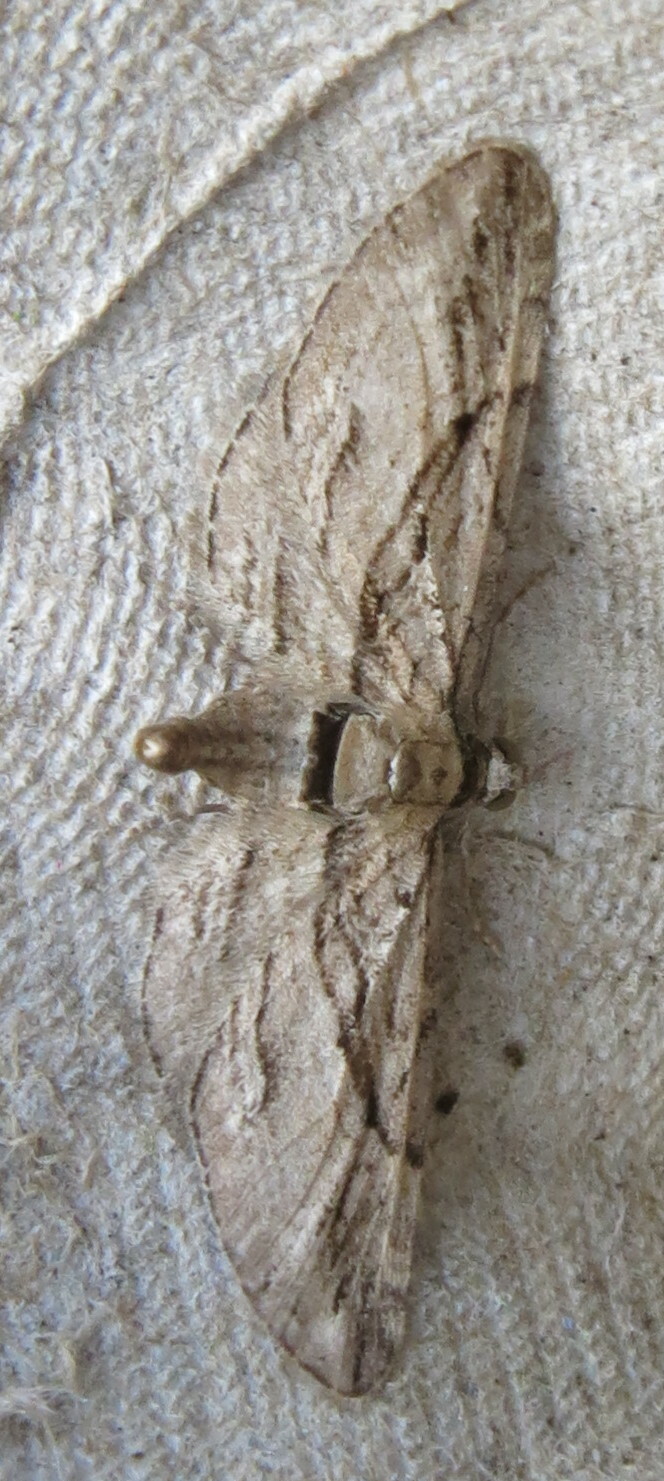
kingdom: Animalia
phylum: Arthropoda
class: Insecta
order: Lepidoptera
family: Geometridae
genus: Eupithecia
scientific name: Eupithecia phoeniceata
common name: Cypress pug
